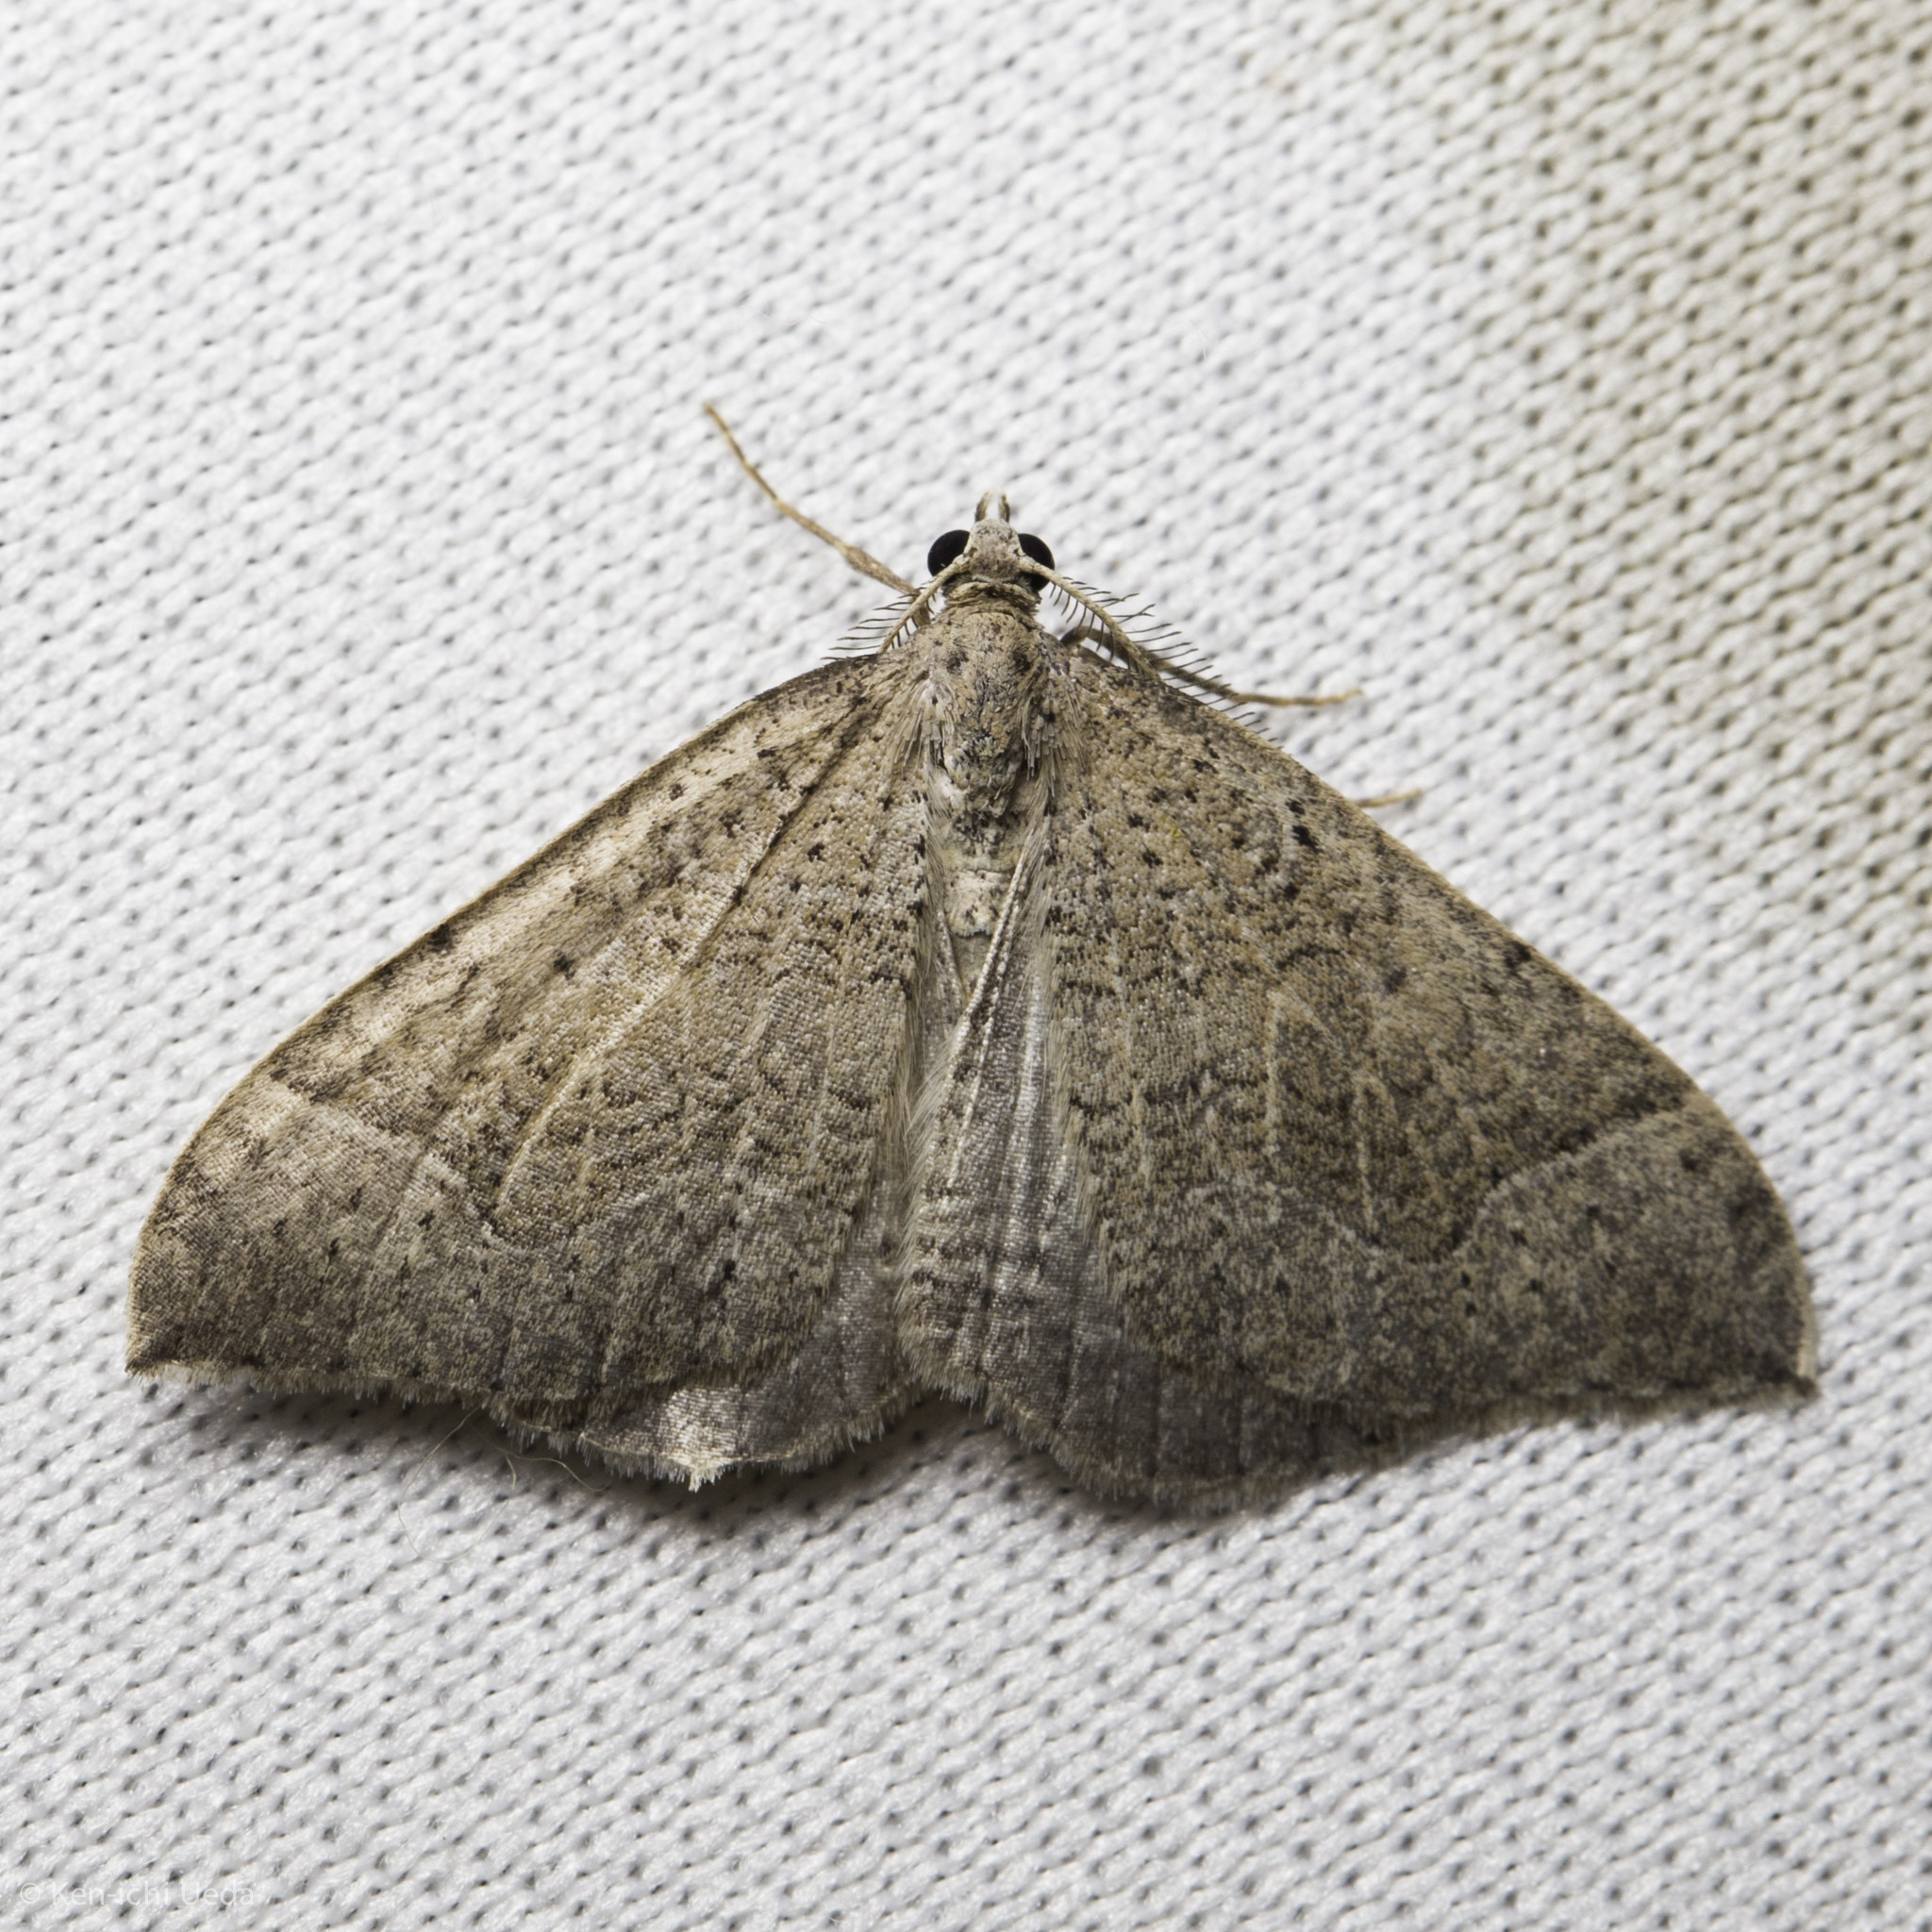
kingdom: Animalia
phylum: Arthropoda
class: Insecta
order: Lepidoptera
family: Geometridae
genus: Zenophleps
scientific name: Zenophleps lignicolorata
